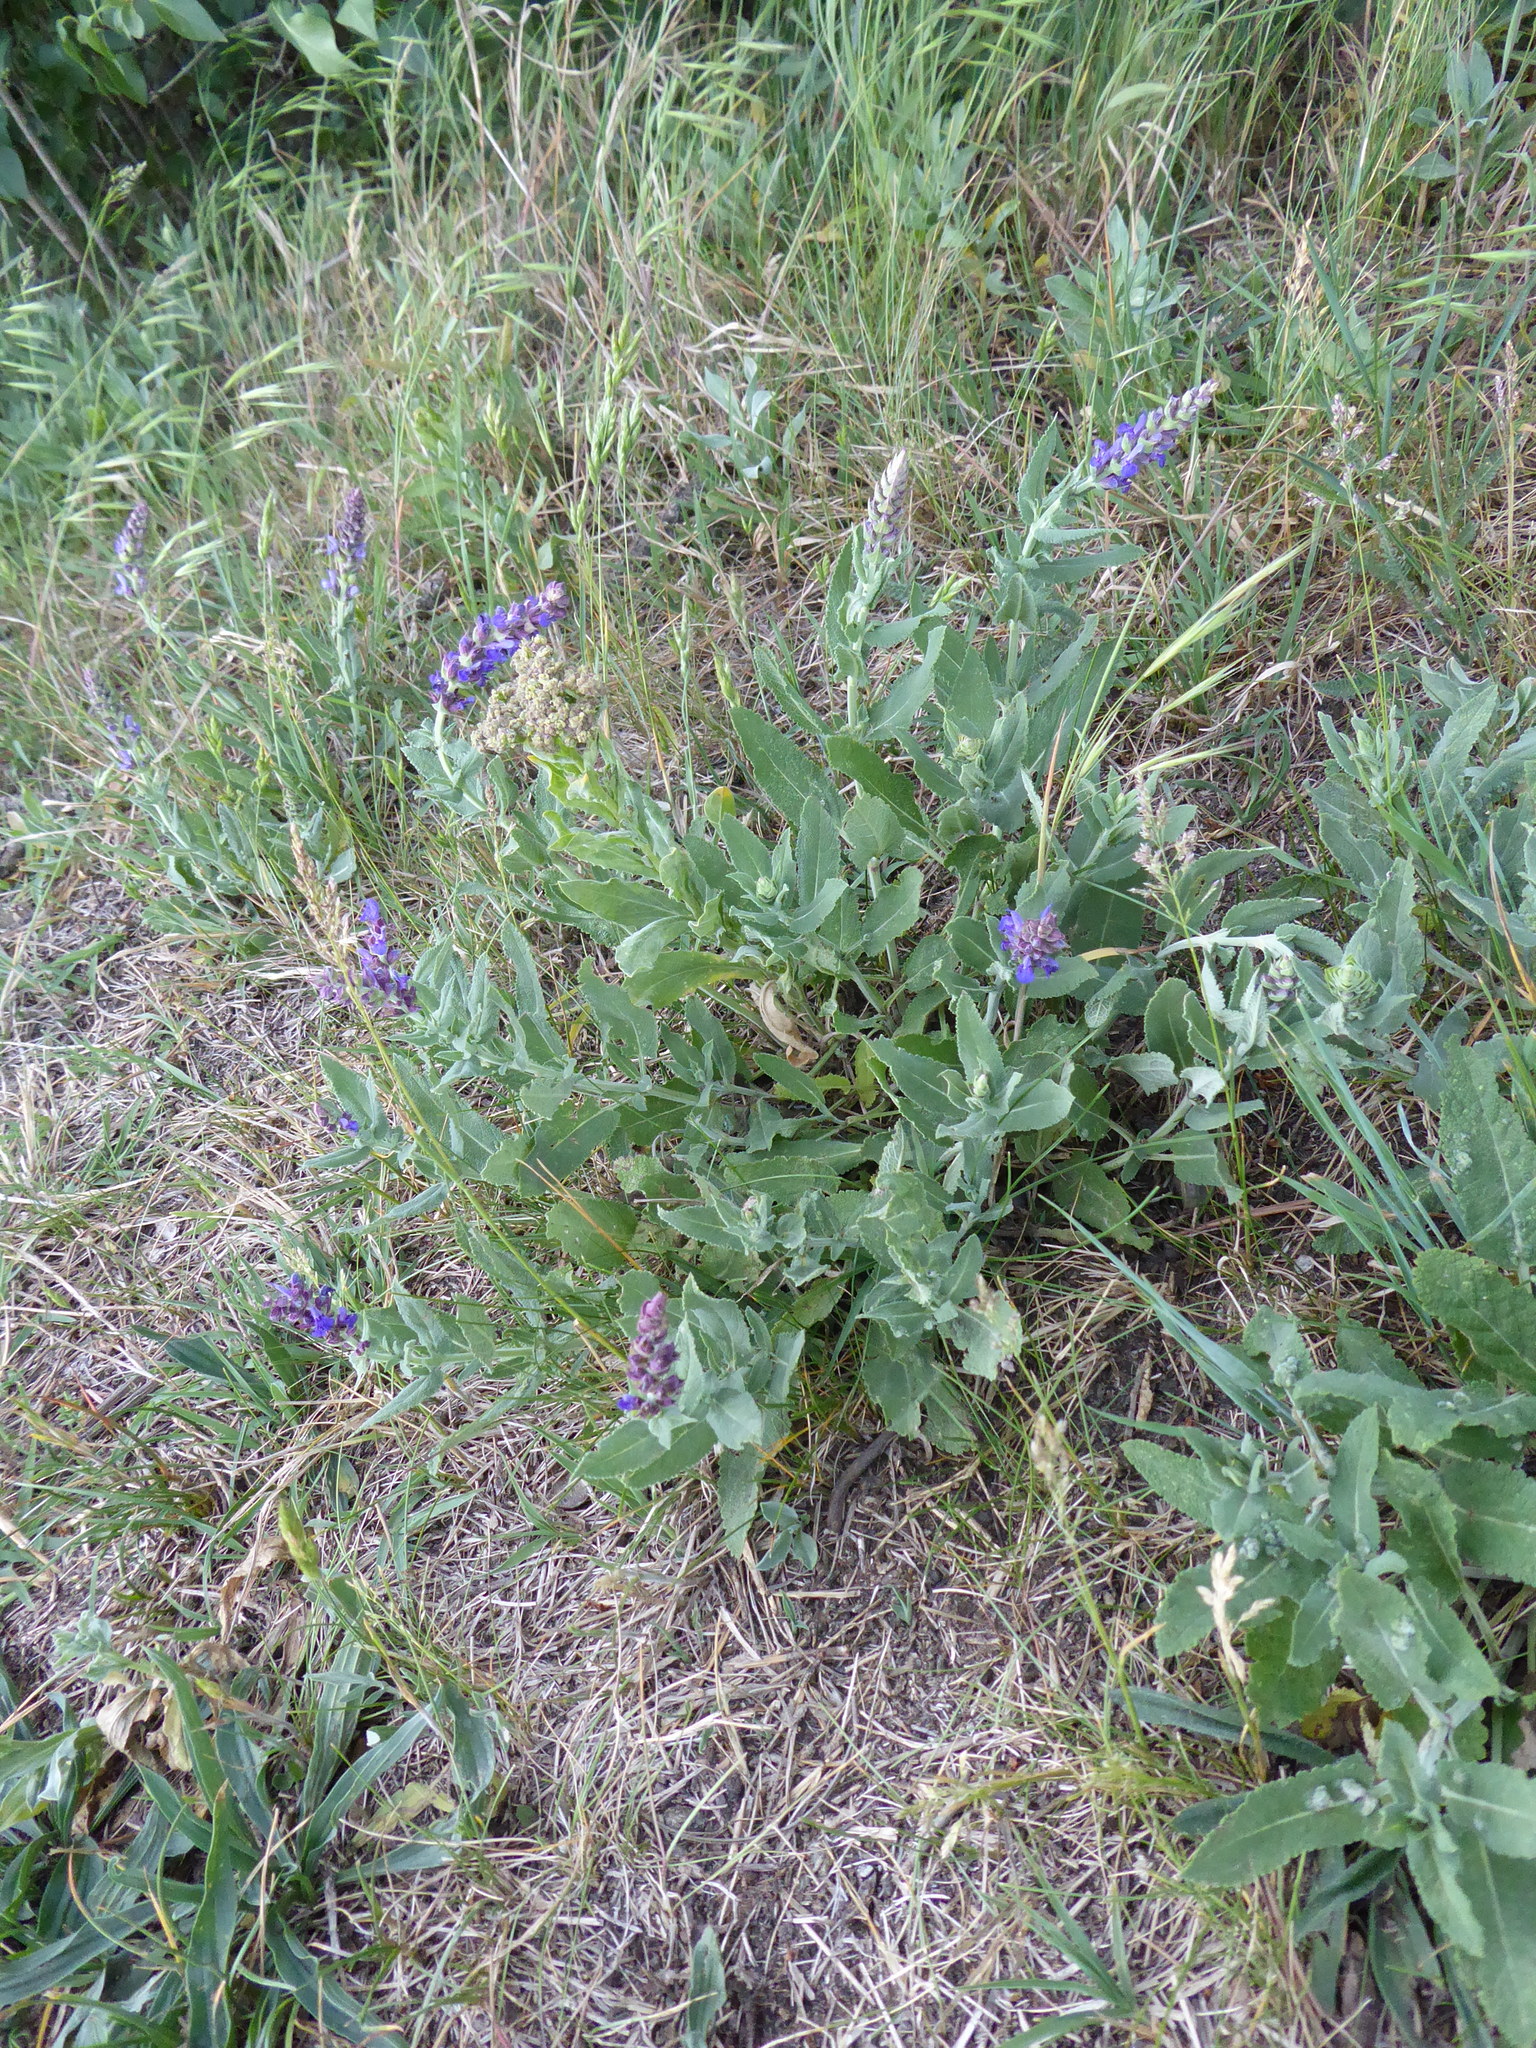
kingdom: Plantae
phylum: Tracheophyta
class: Magnoliopsida
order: Lamiales
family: Lamiaceae
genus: Salvia
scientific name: Salvia nemorosa
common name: Balkan clary
